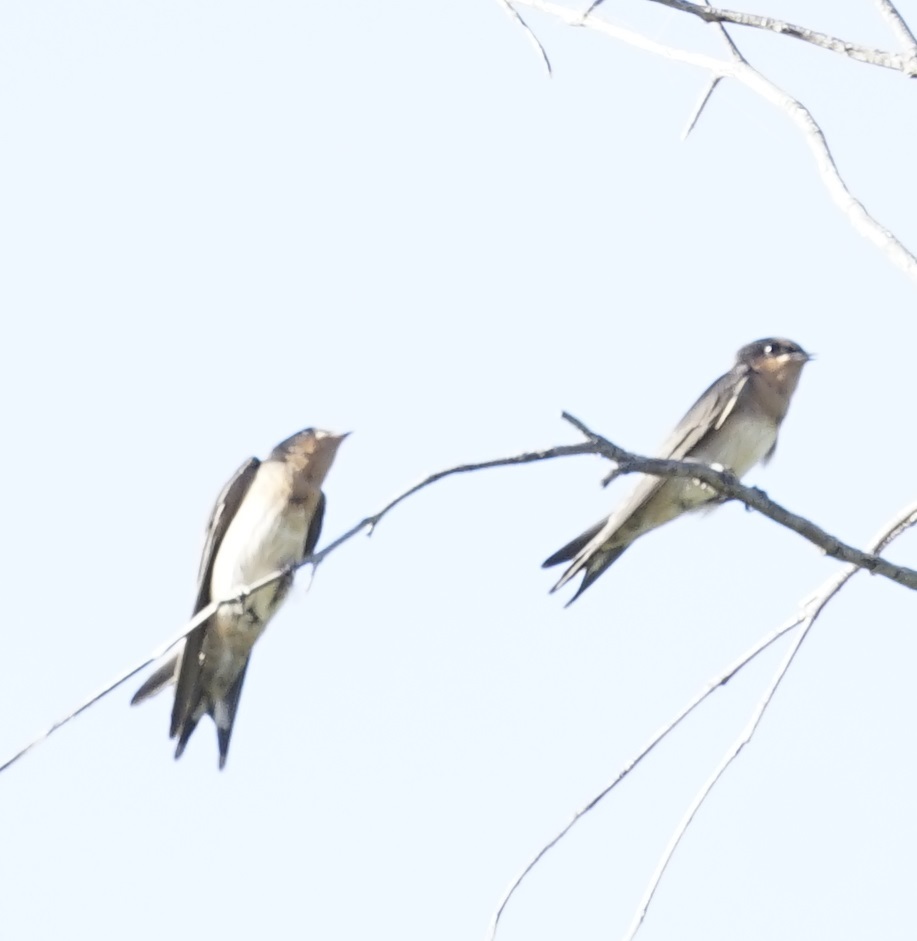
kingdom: Animalia
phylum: Chordata
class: Aves
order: Passeriformes
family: Hirundinidae
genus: Hirundo
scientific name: Hirundo neoxena
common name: Welcome swallow
